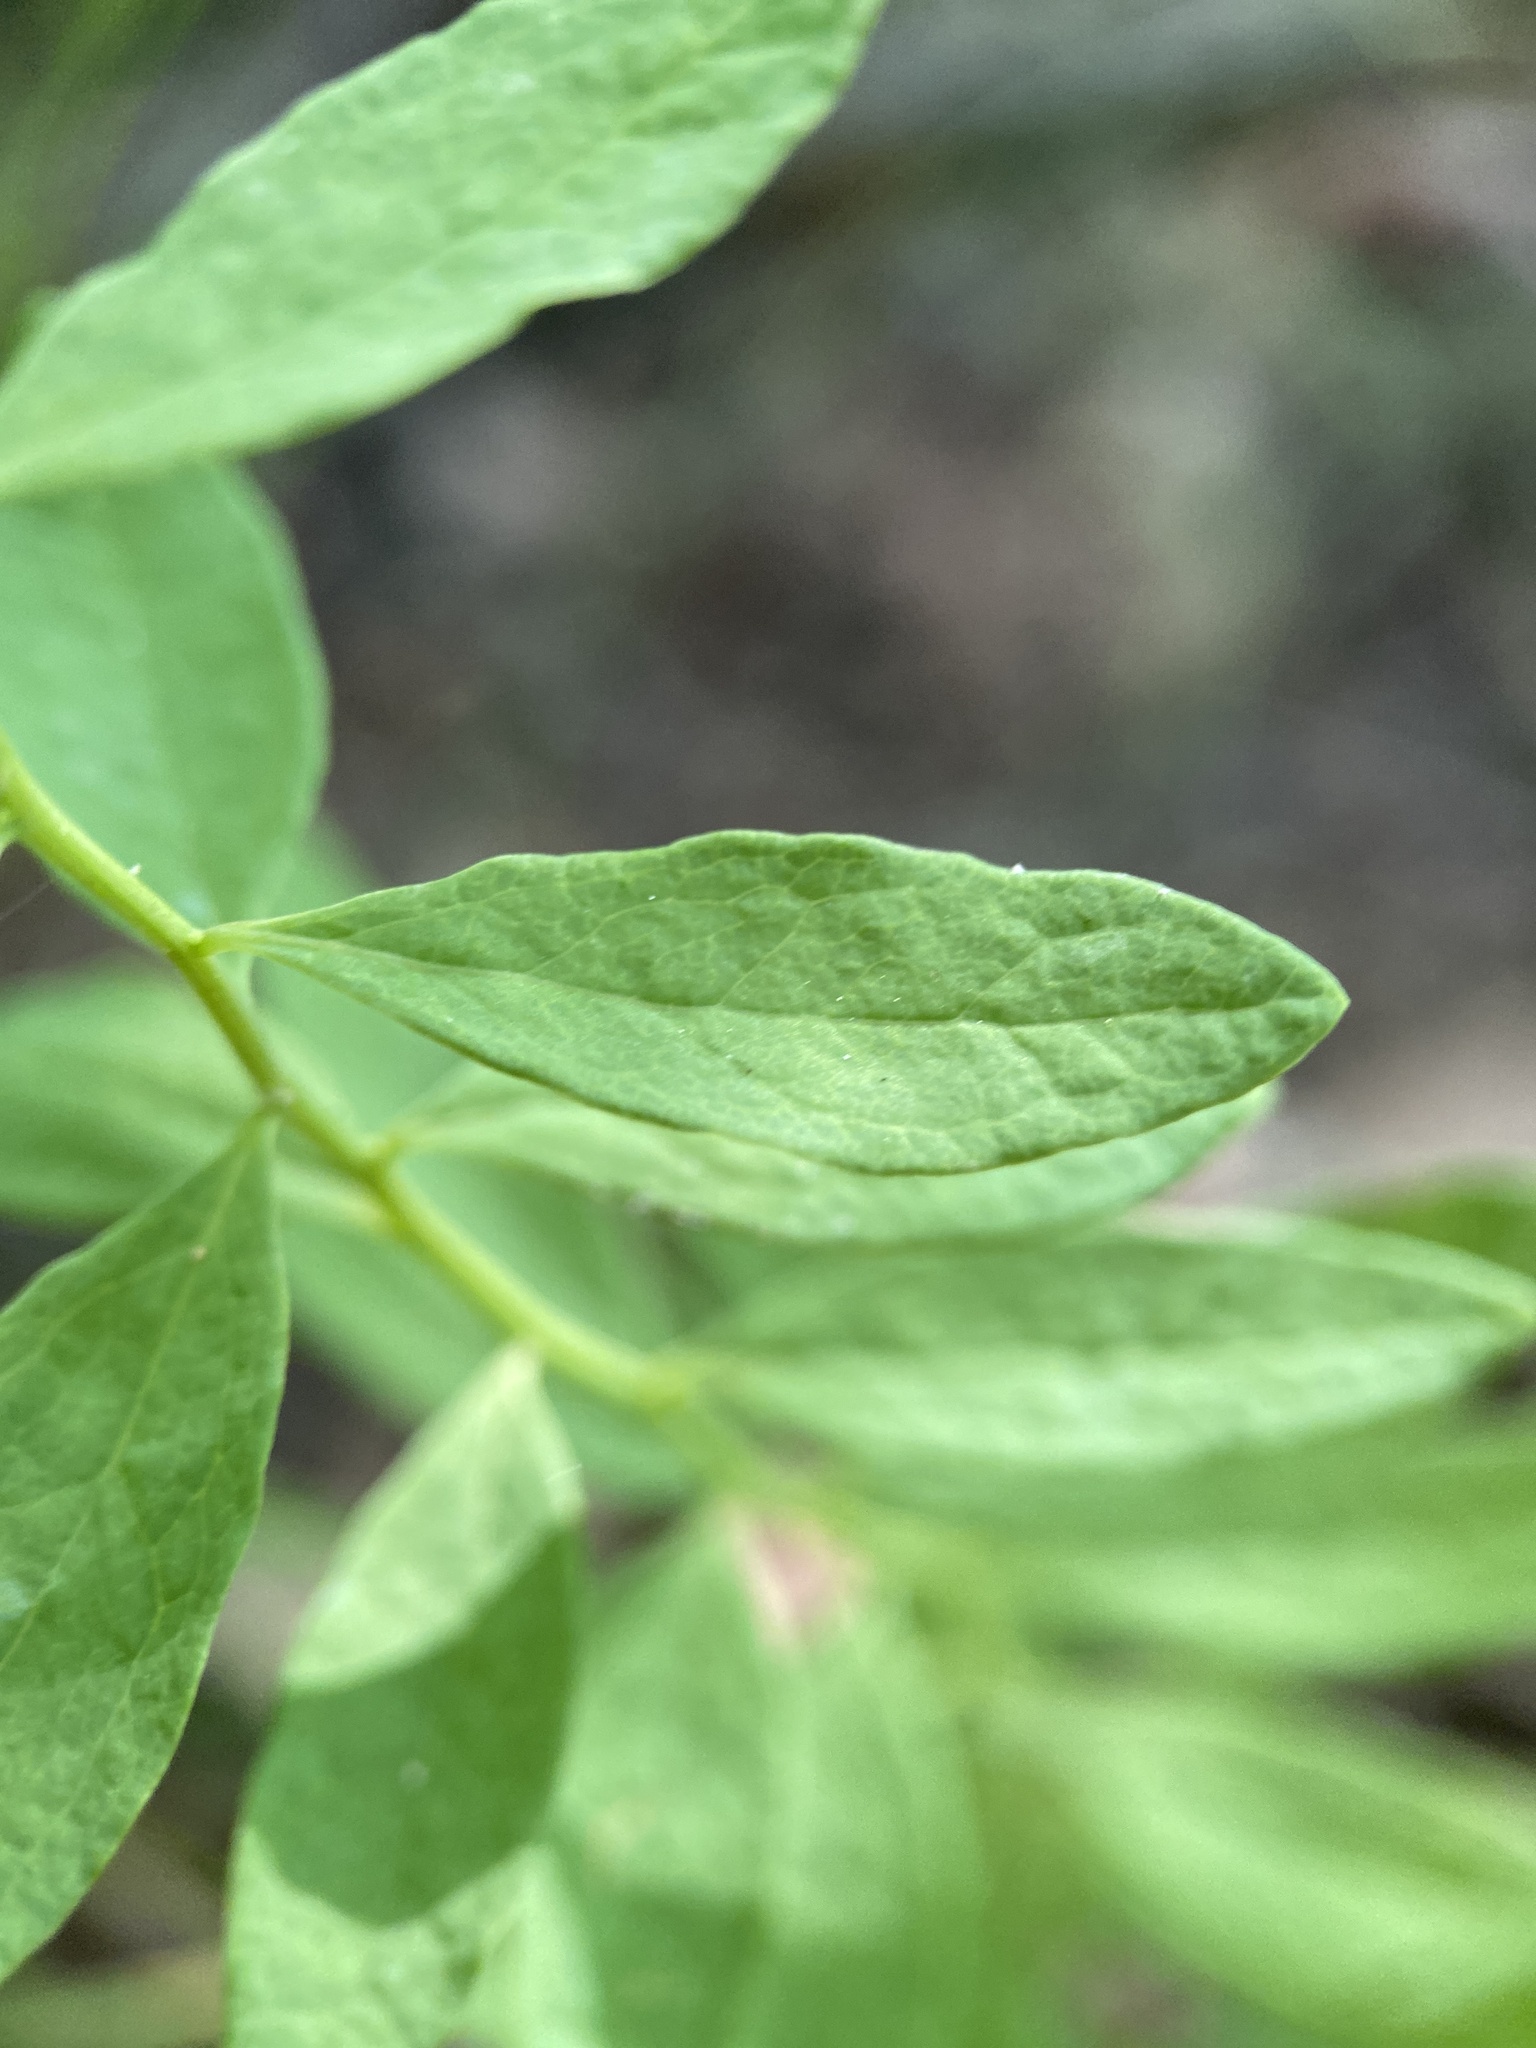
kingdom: Plantae
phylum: Tracheophyta
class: Magnoliopsida
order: Santalales
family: Comandraceae
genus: Comandra
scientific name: Comandra umbellata
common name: Bastard toadflax
